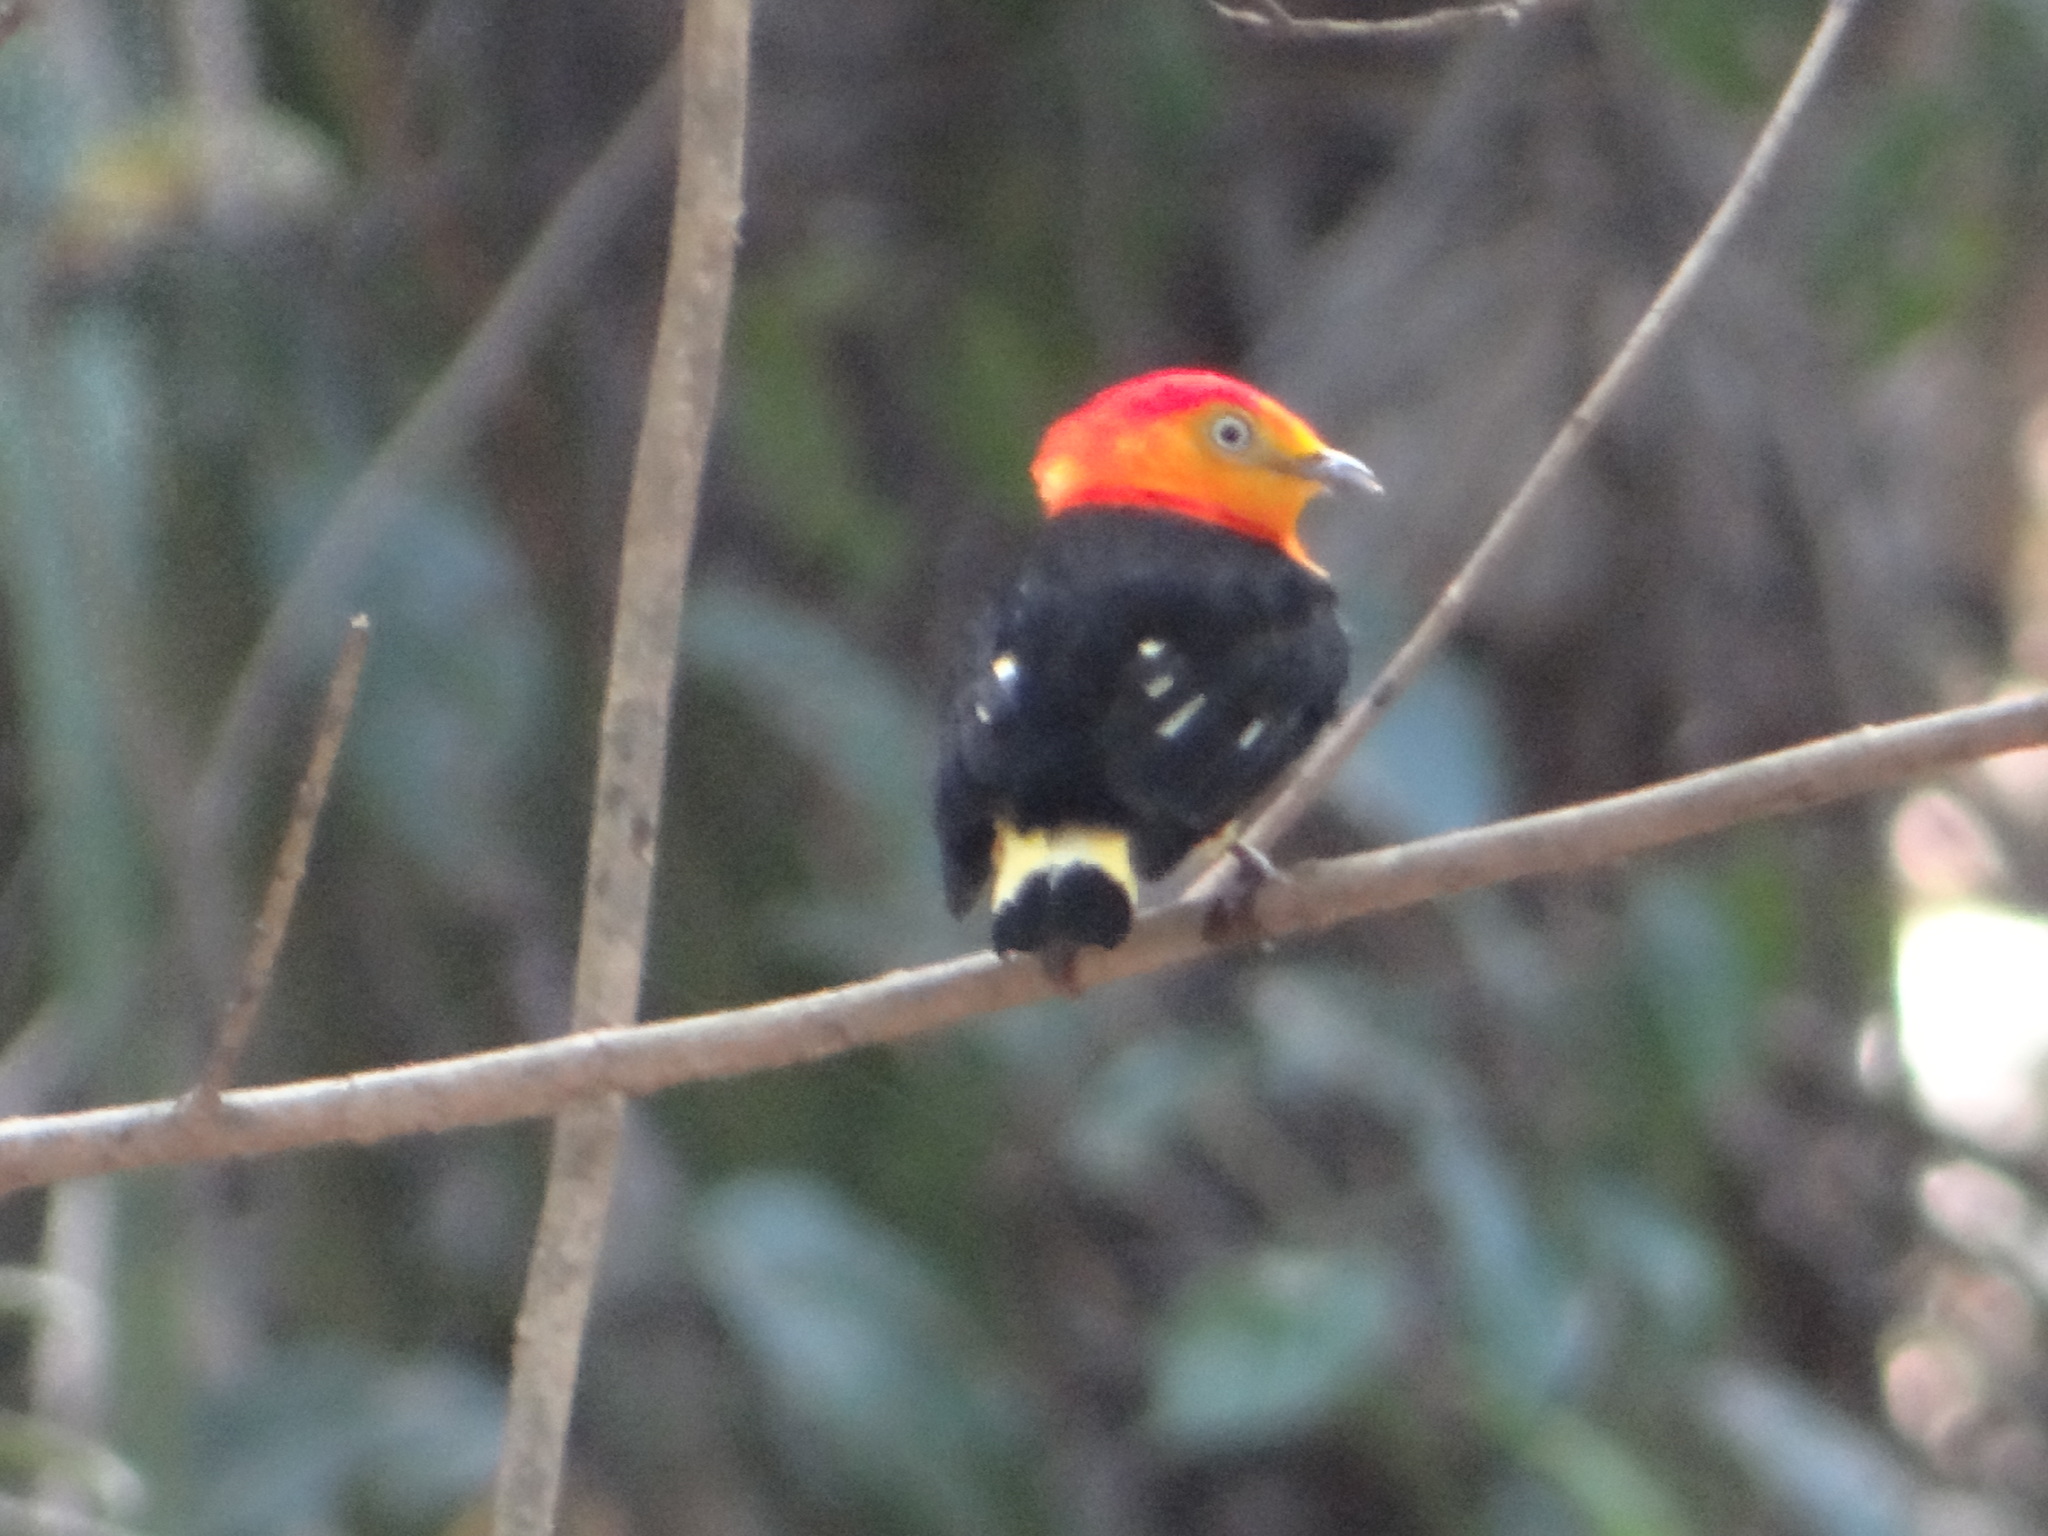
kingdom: Animalia
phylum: Chordata
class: Aves
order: Passeriformes
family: Pipridae
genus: Pipra
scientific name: Pipra fasciicauda
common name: Band-tailed manakin
